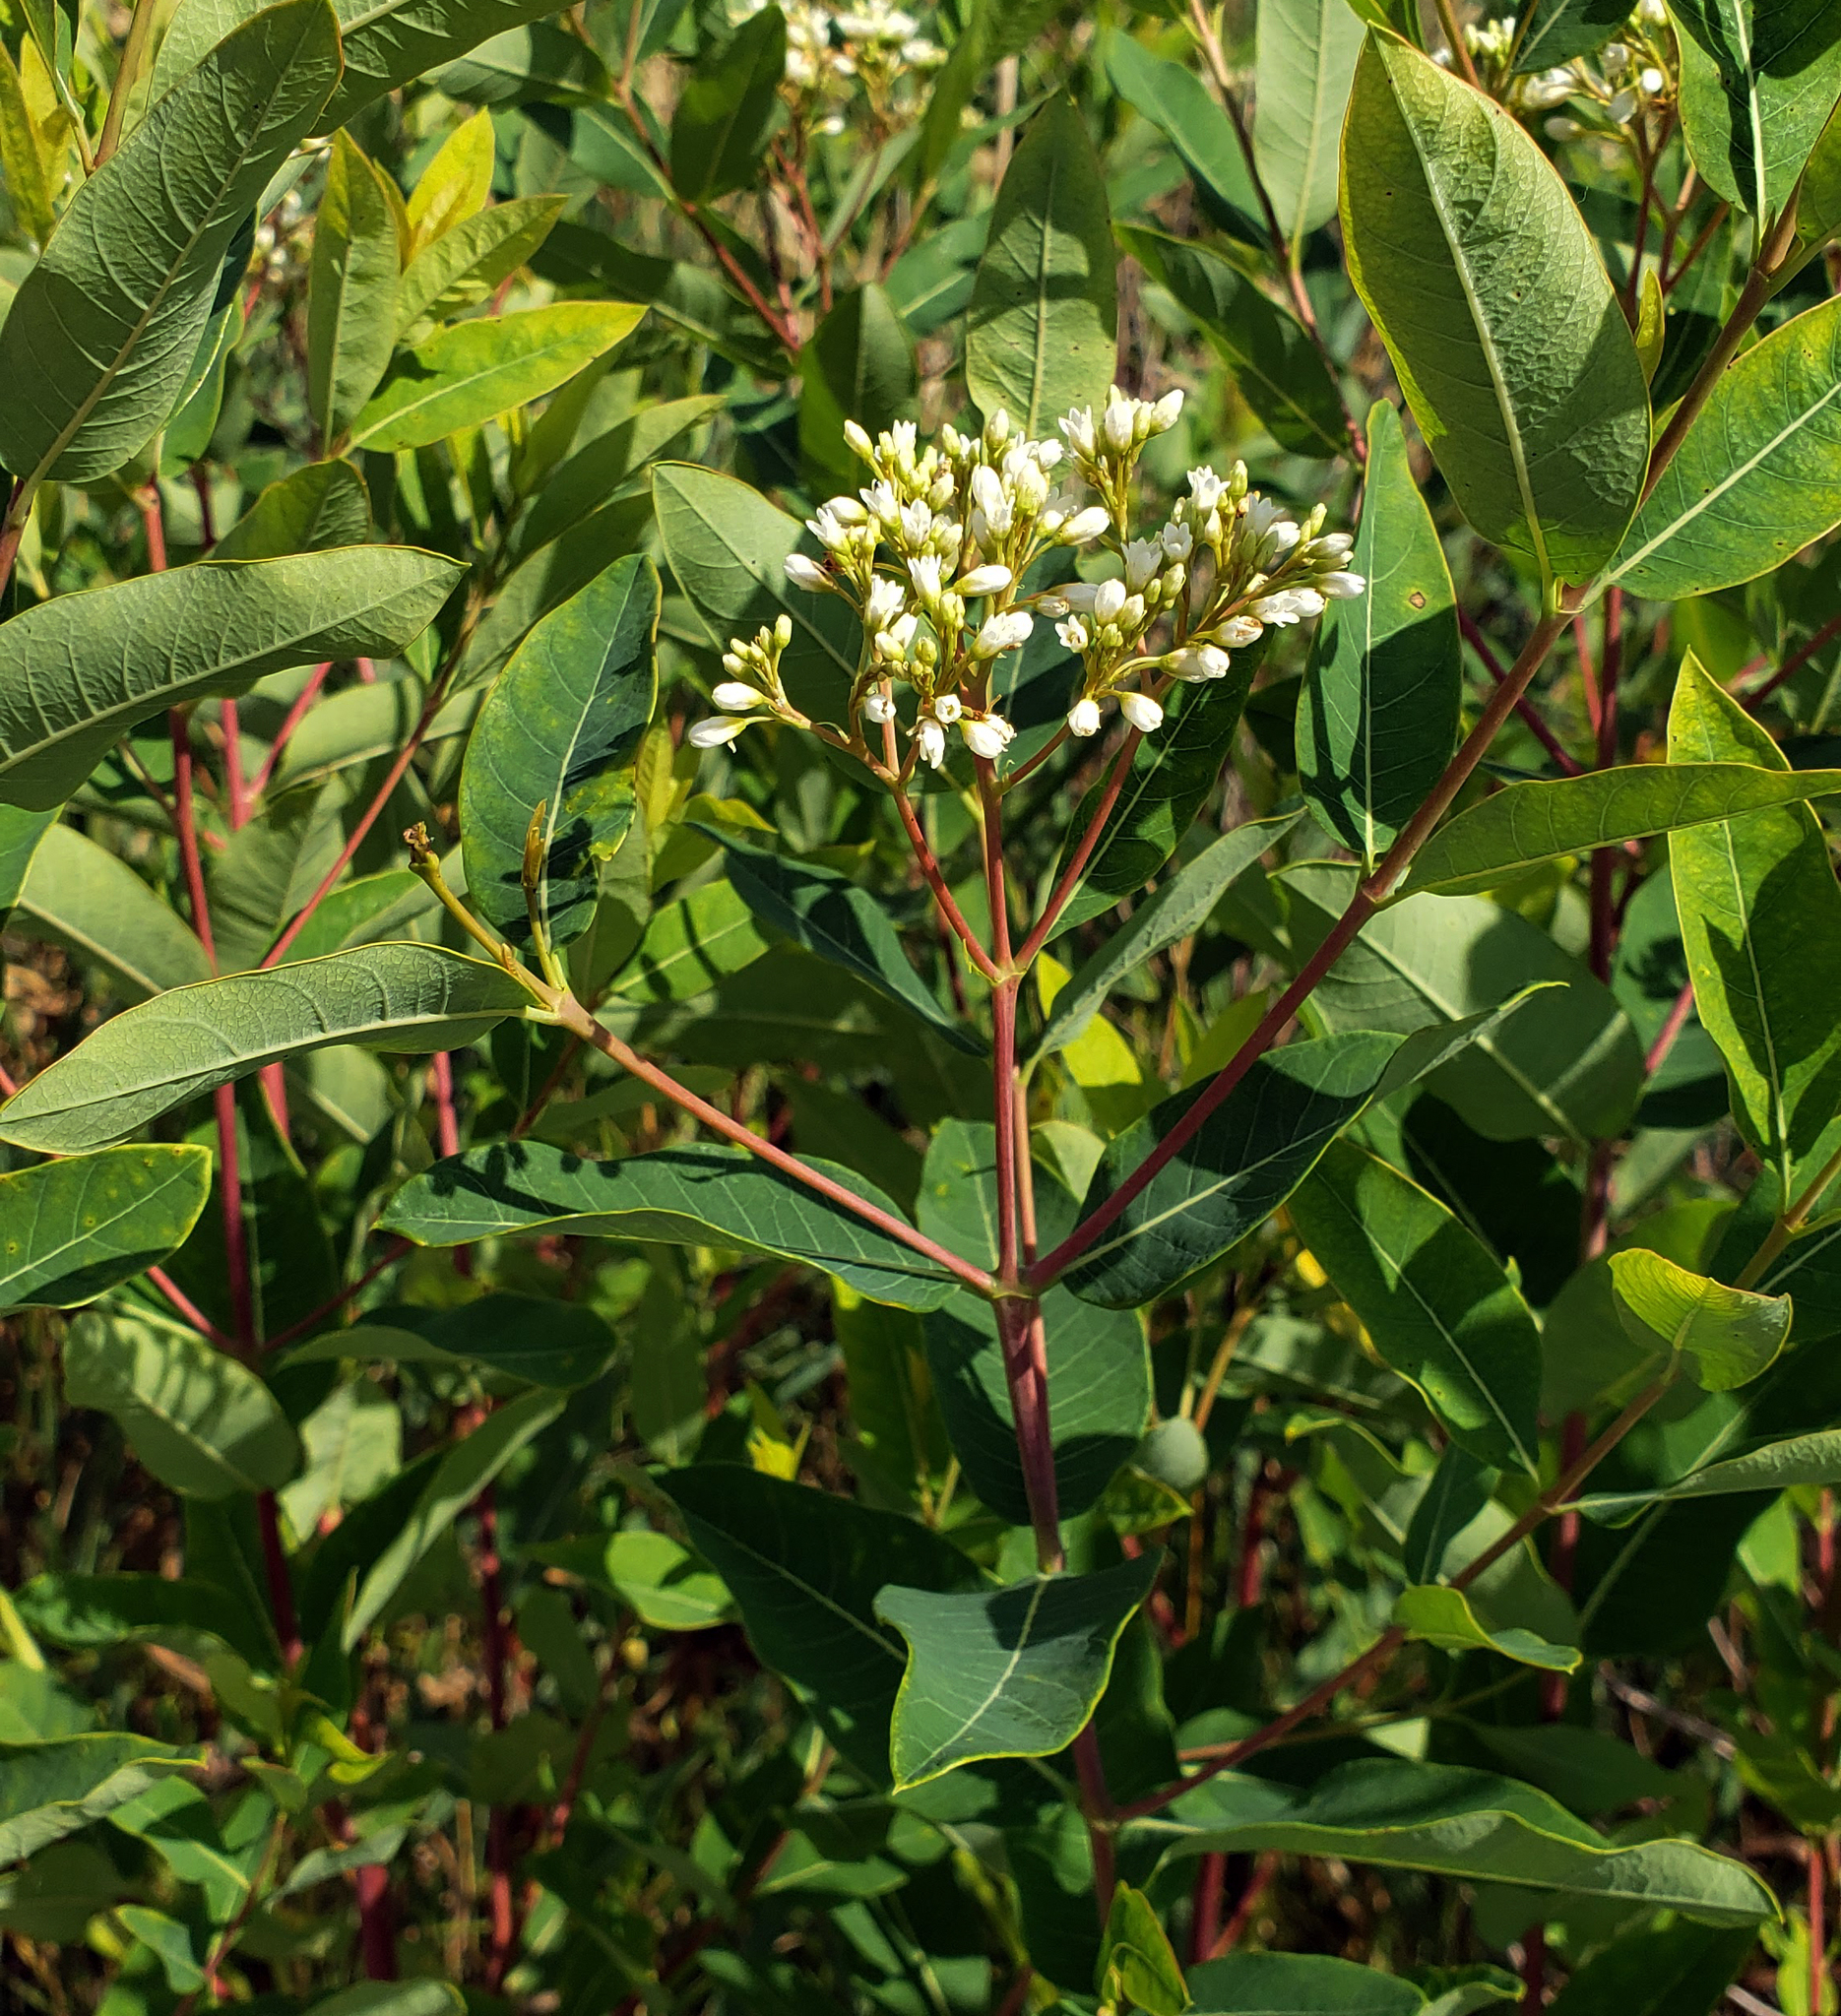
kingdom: Plantae
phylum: Tracheophyta
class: Magnoliopsida
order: Gentianales
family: Apocynaceae
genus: Apocynum
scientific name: Apocynum cannabinum
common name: Hemp dogbane
